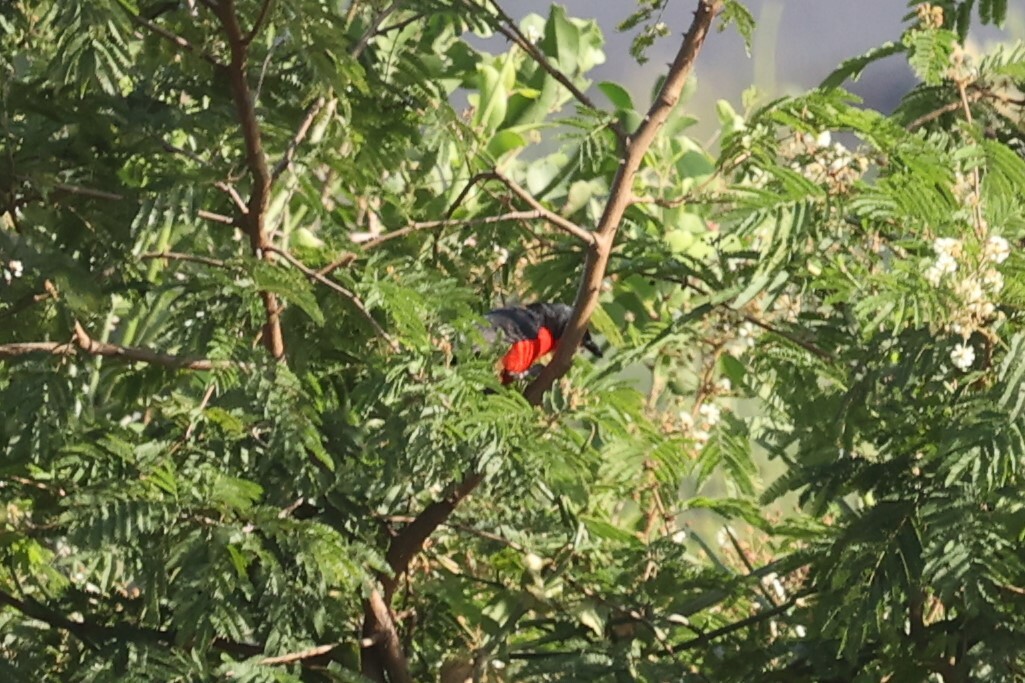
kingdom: Animalia
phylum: Chordata
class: Aves
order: Passeriformes
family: Malaconotidae
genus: Laniarius
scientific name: Laniarius erythrogaster
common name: Black-headed gonolek
